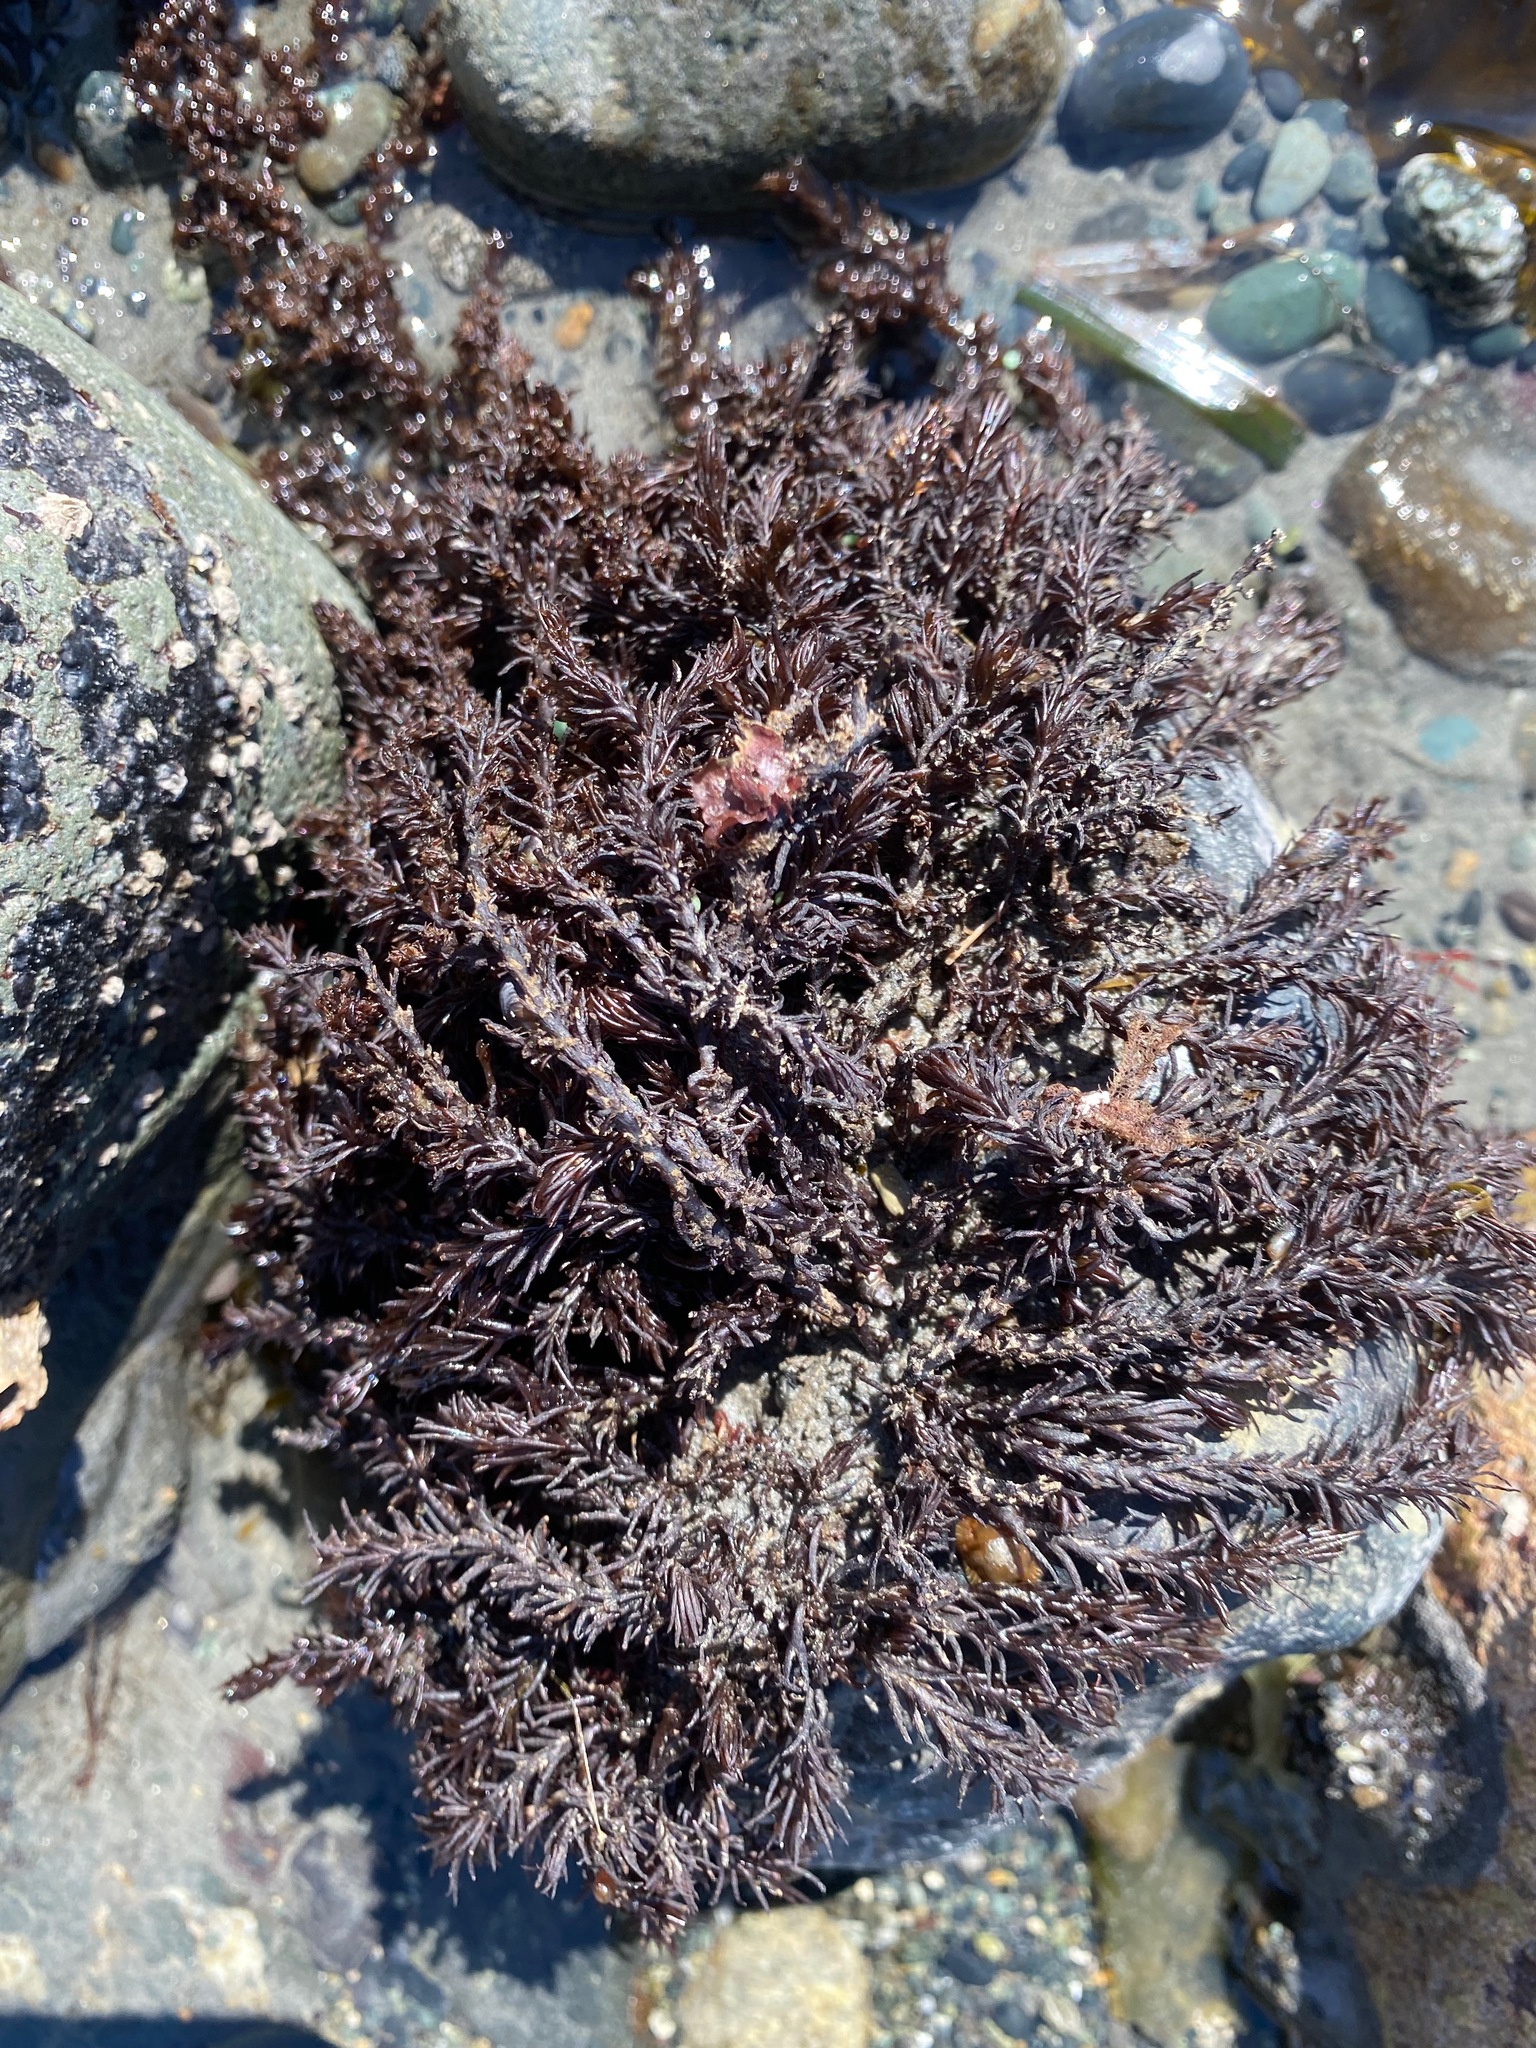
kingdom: Plantae
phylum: Rhodophyta
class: Florideophyceae
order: Ceramiales
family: Rhodomelaceae
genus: Neorhodomela
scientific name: Neorhodomela larix
